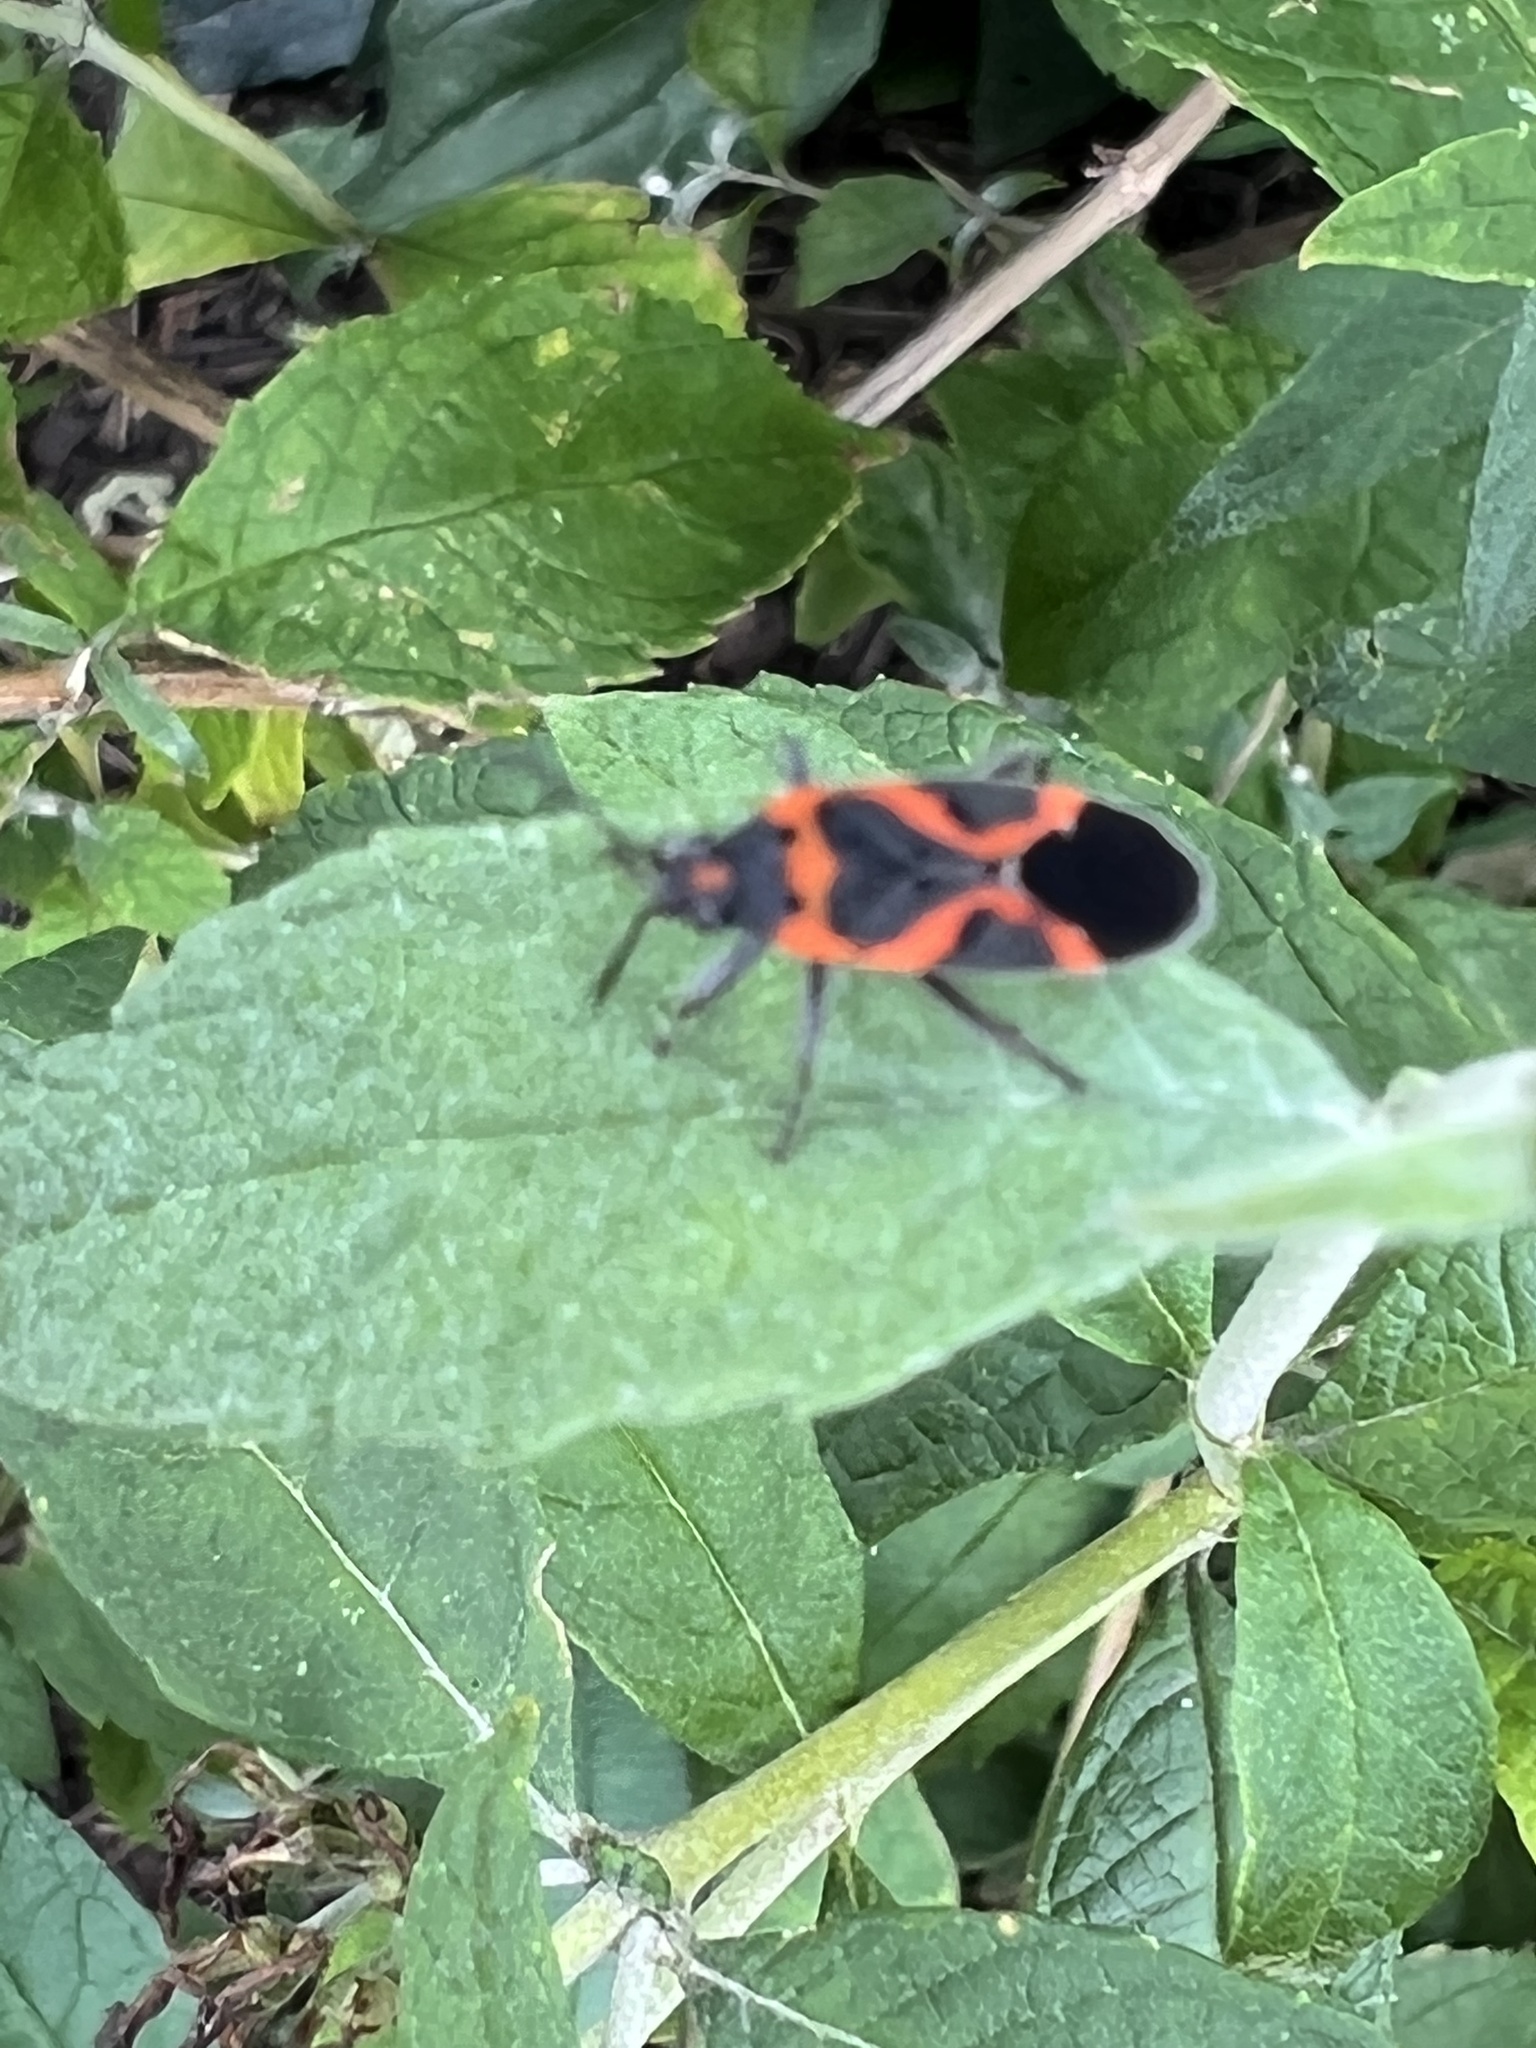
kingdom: Animalia
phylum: Arthropoda
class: Insecta
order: Hemiptera
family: Lygaeidae
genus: Lygaeus
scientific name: Lygaeus kalmii
